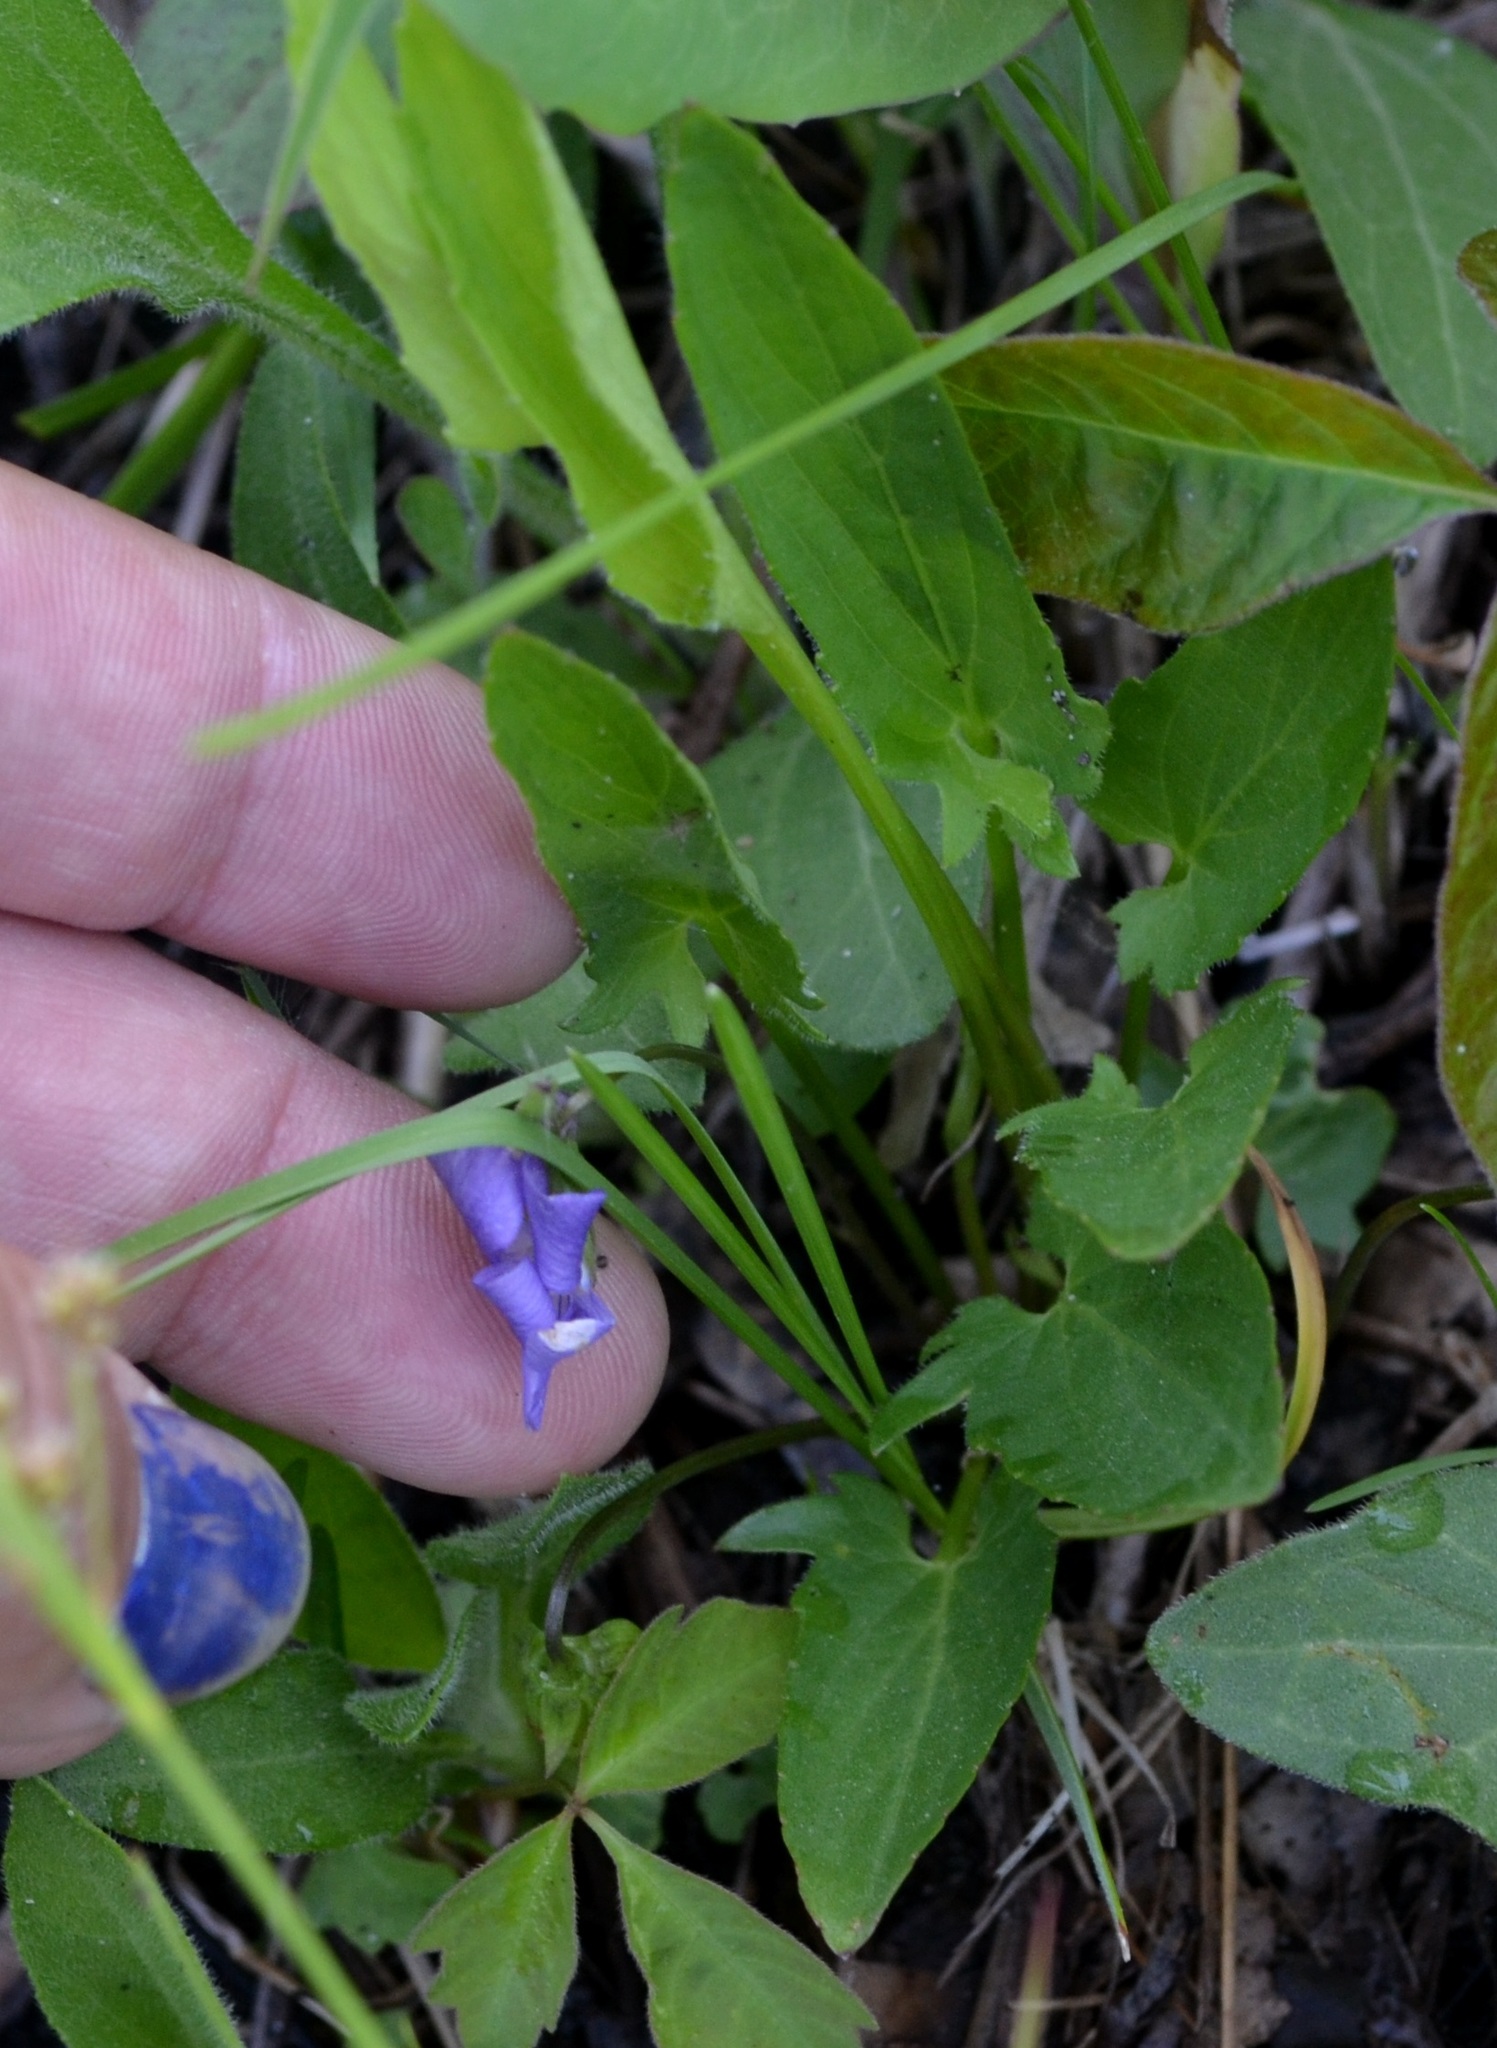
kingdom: Plantae
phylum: Tracheophyta
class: Magnoliopsida
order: Malpighiales
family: Violaceae
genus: Viola
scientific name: Viola sagittata
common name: Arrowhead violet
